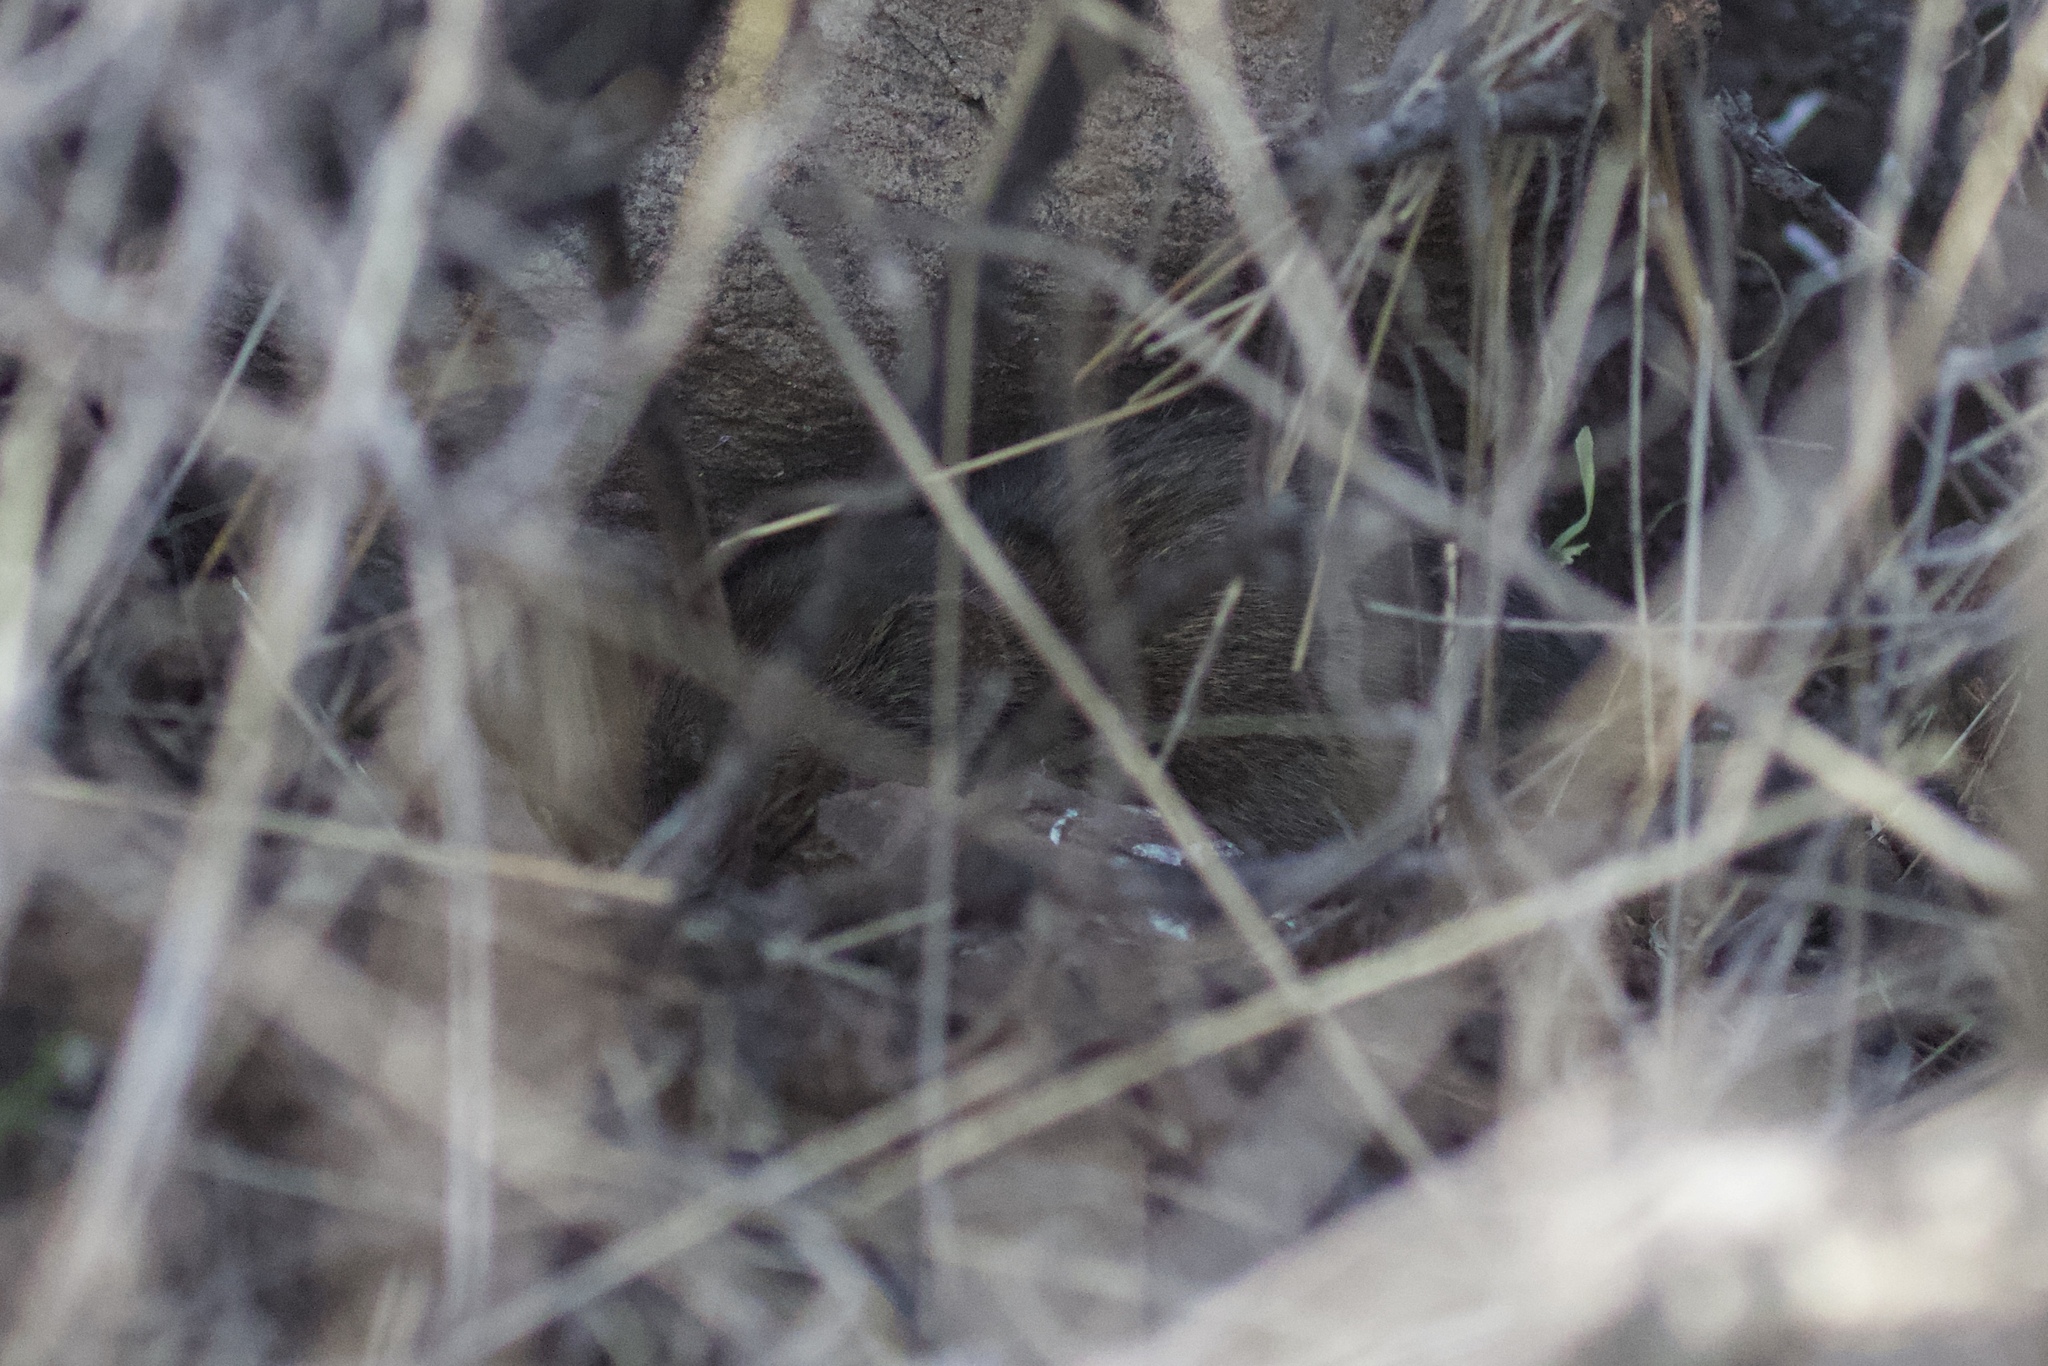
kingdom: Animalia
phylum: Chordata
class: Mammalia
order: Rodentia
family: Cricetidae
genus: Microtus
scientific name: Microtus californicus
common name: California vole
